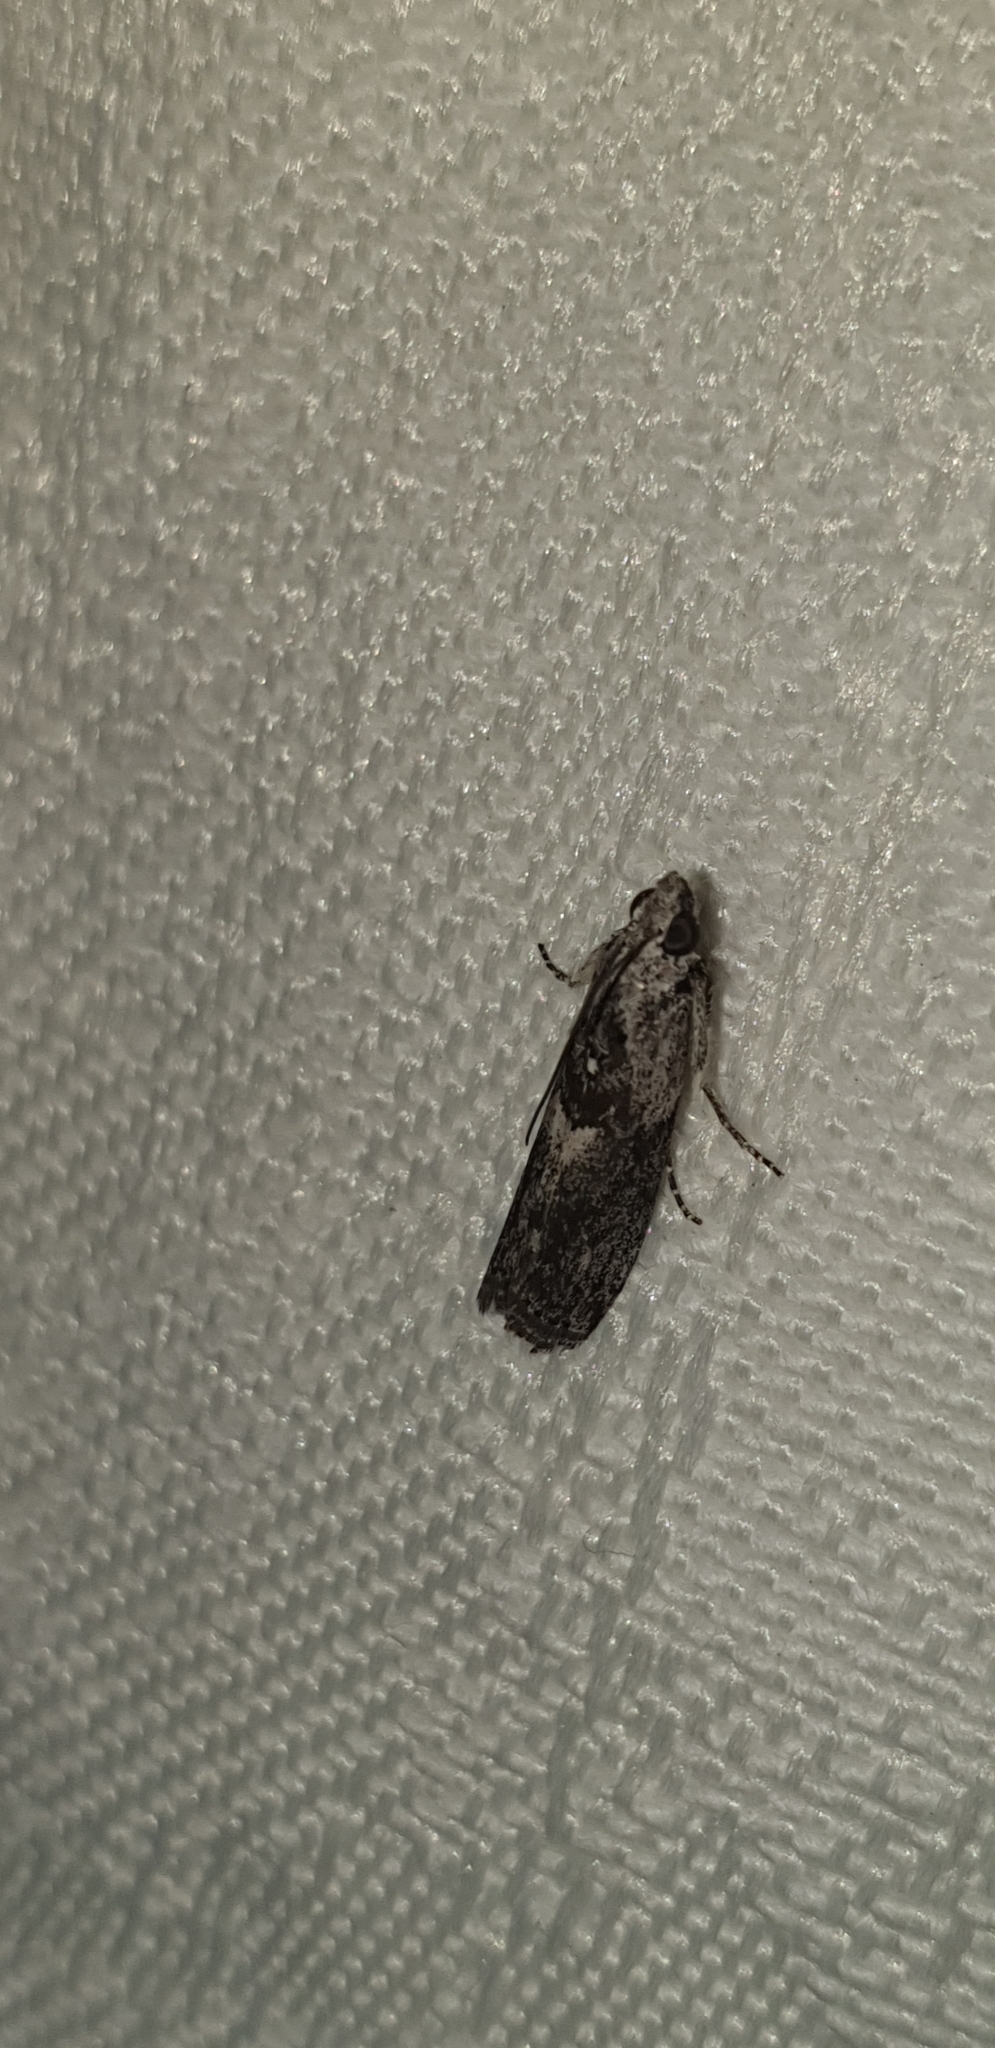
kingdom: Animalia
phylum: Arthropoda
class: Insecta
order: Lepidoptera
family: Pyralidae
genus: Sciota
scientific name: Sciota
